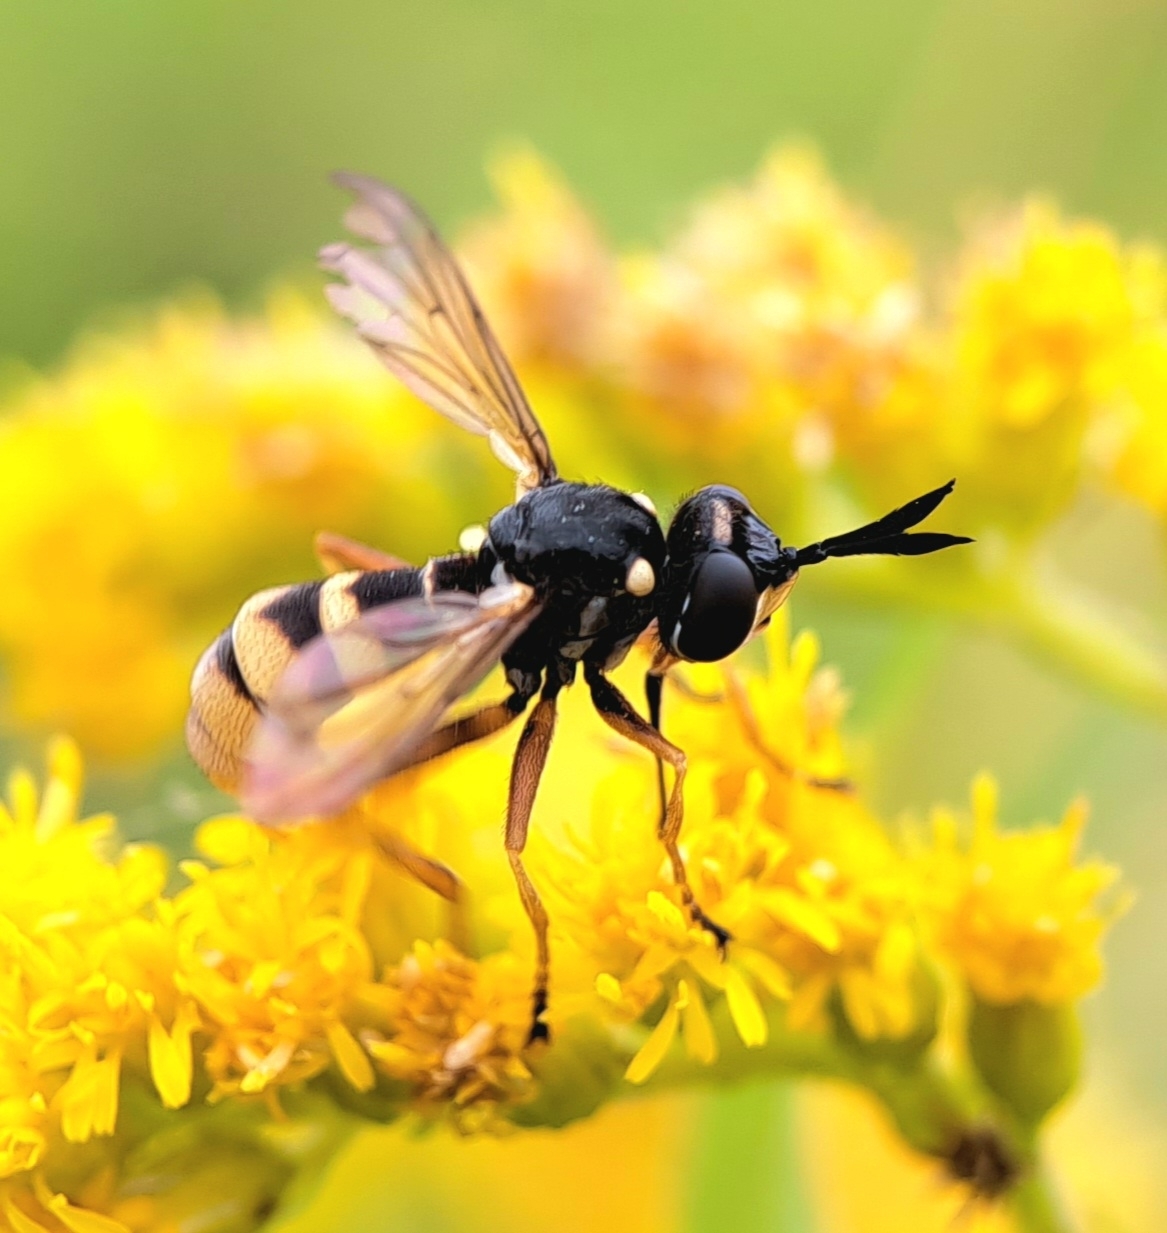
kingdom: Animalia
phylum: Arthropoda
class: Insecta
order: Diptera
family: Conopidae
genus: Conops
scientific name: Conops quadrifasciatus
